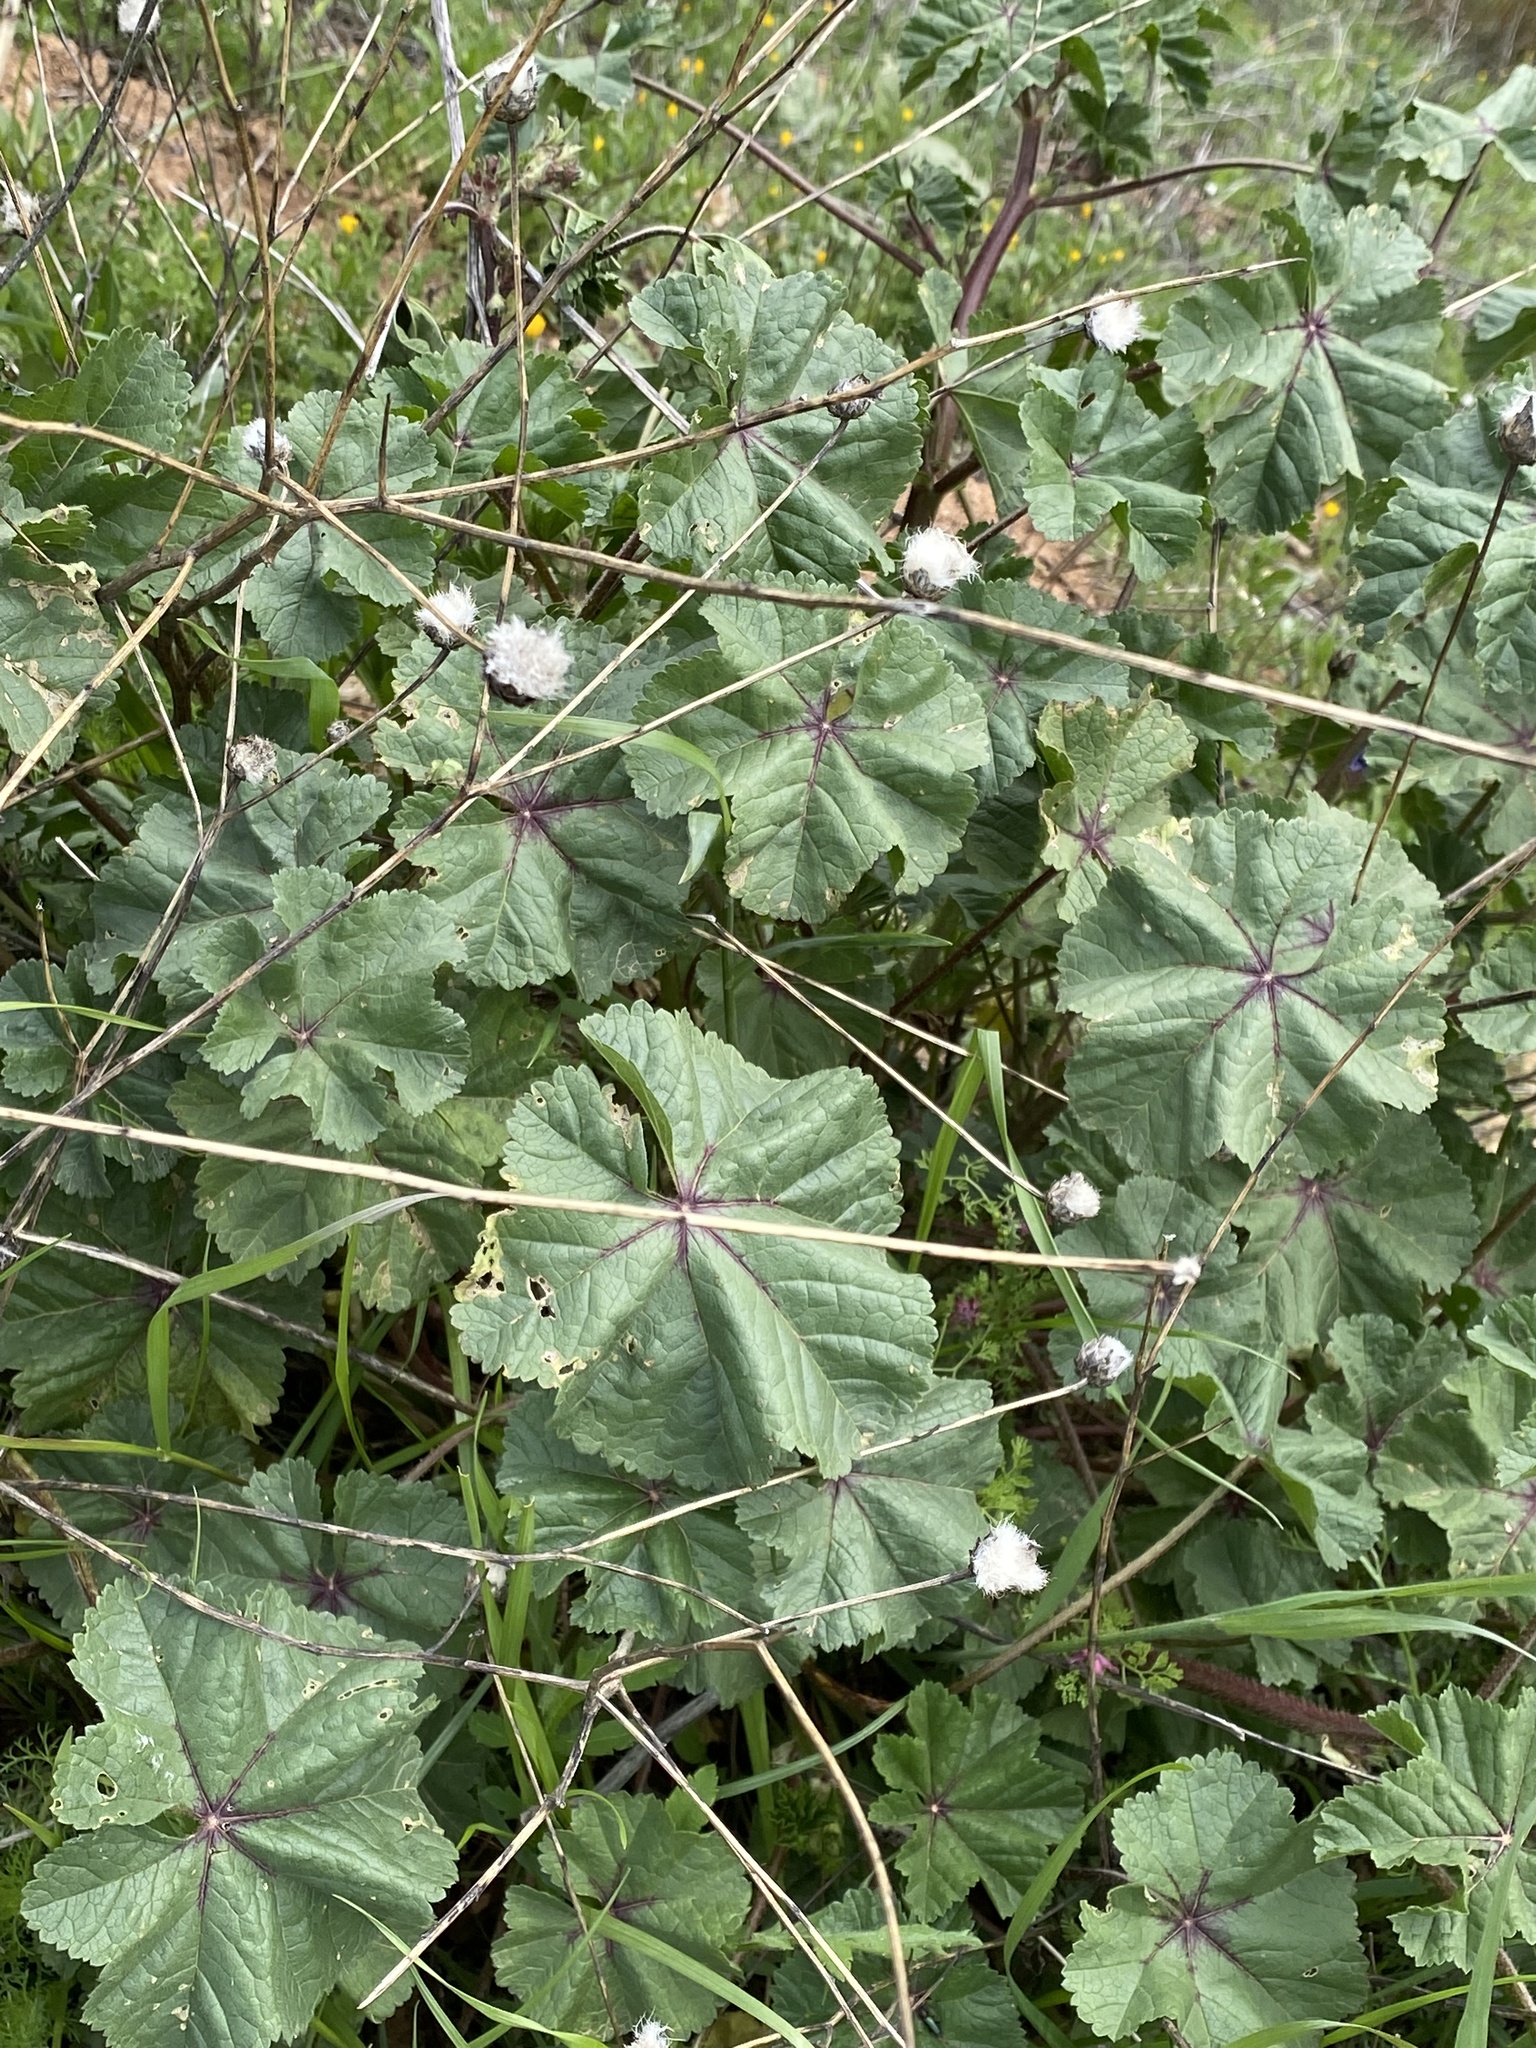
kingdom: Plantae
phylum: Tracheophyta
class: Magnoliopsida
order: Malvales
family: Malvaceae
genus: Malva
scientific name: Malva sylvestris
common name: Common mallow
